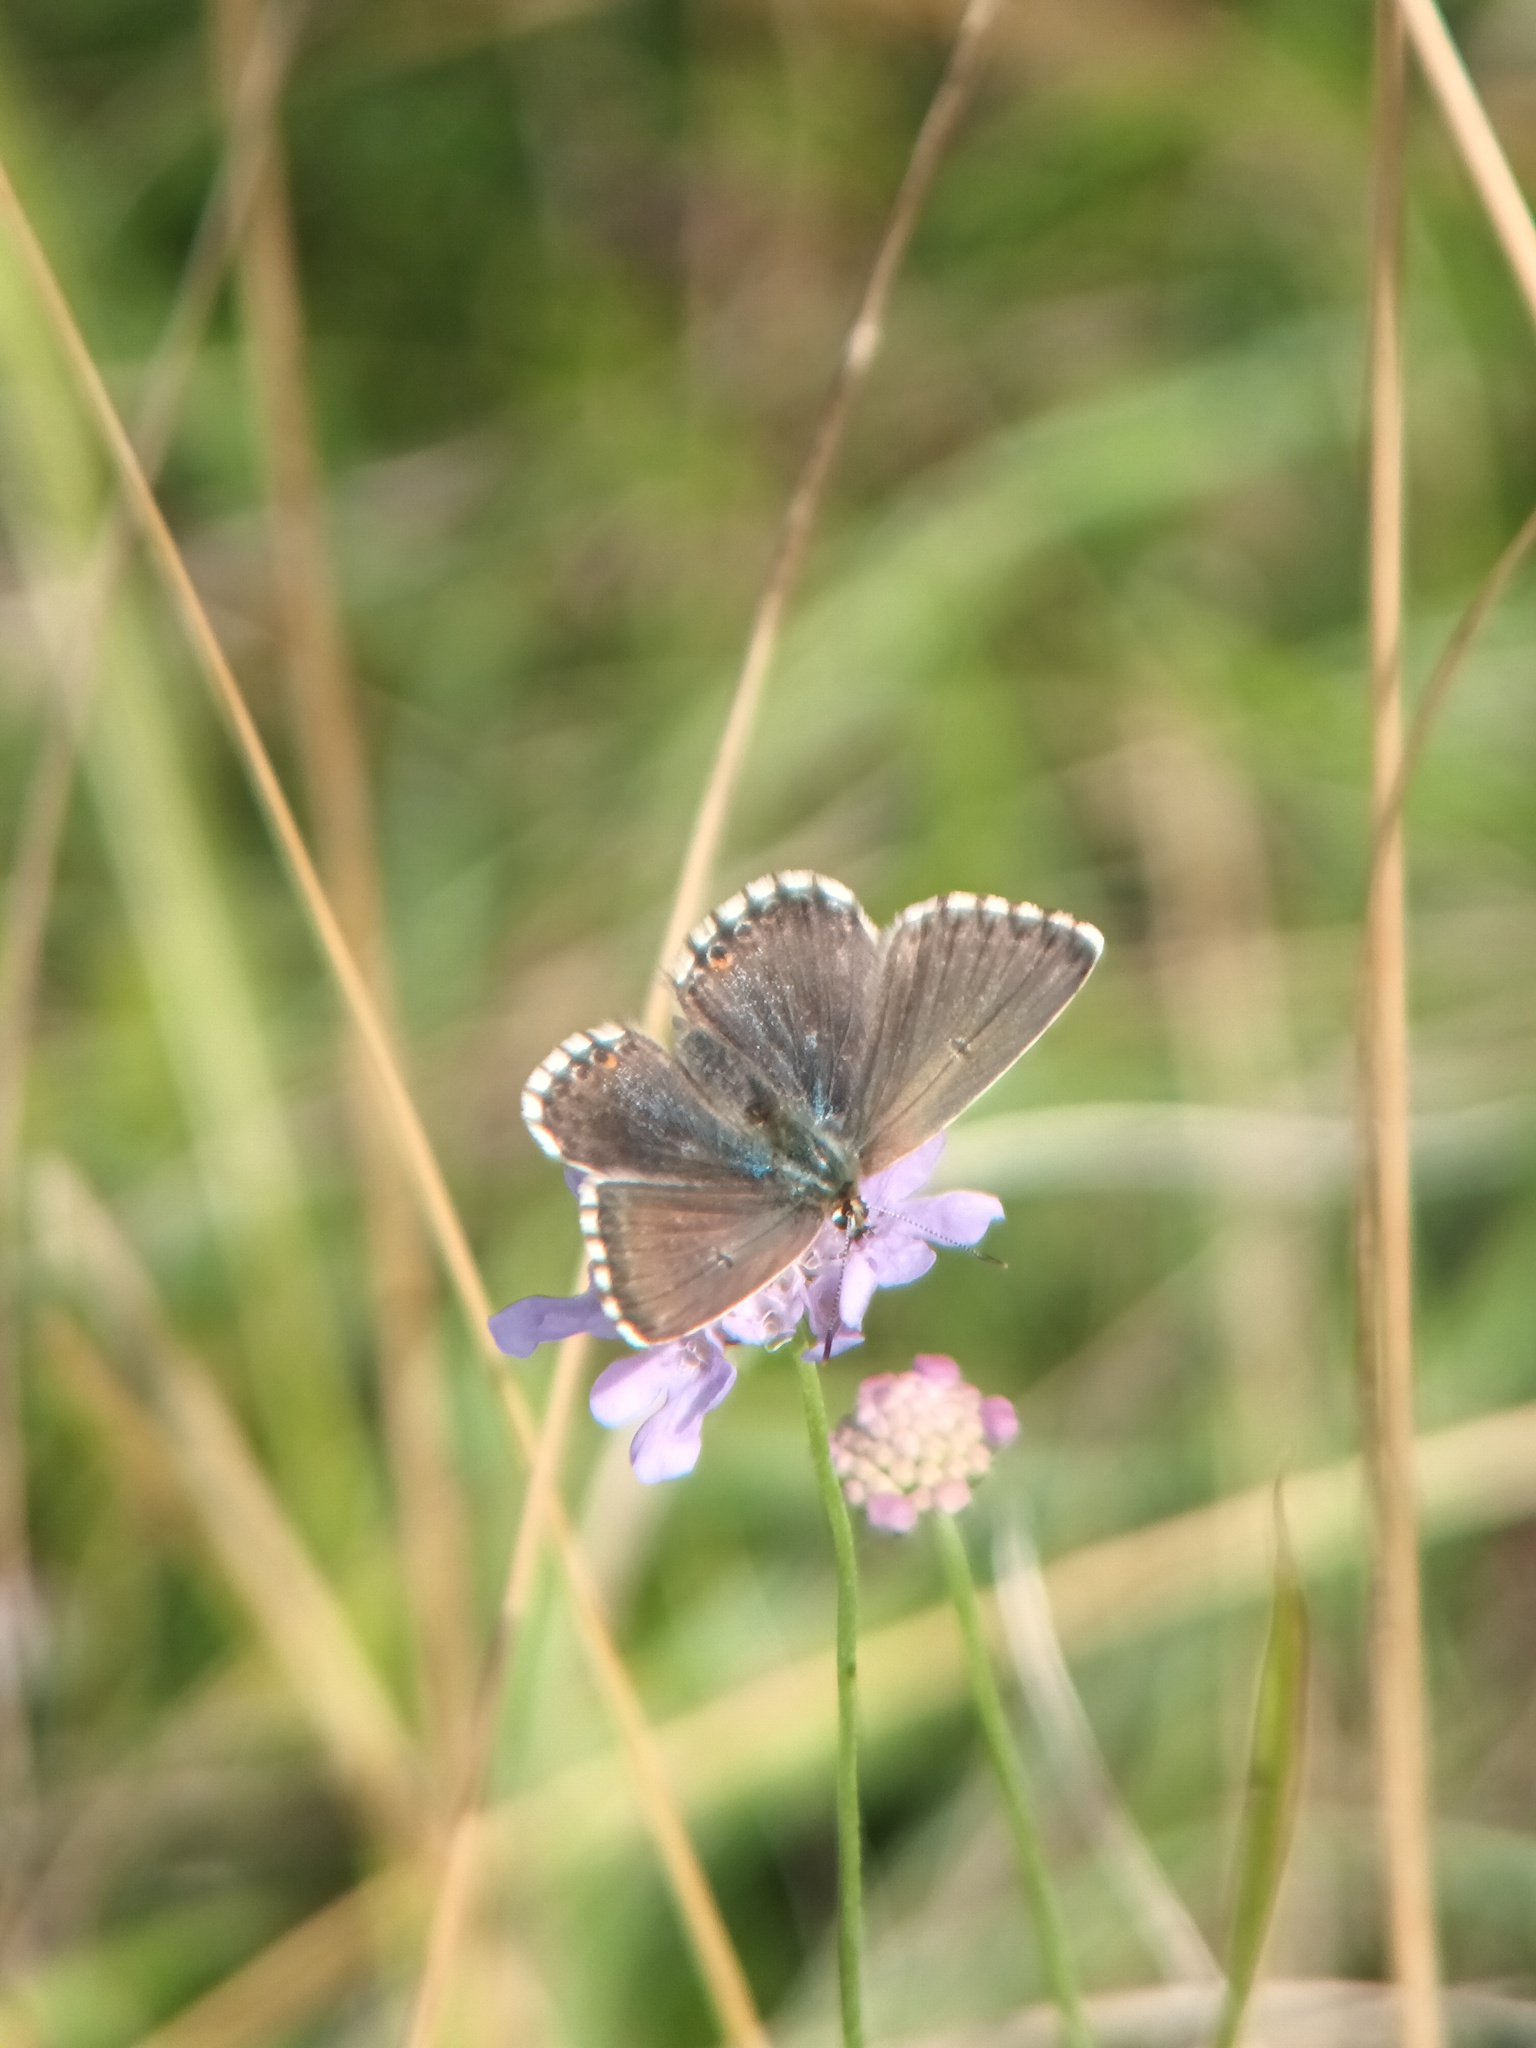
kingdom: Animalia
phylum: Arthropoda
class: Insecta
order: Lepidoptera
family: Lycaenidae
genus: Lysandra
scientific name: Lysandra coridon
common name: Chalkhill blue
